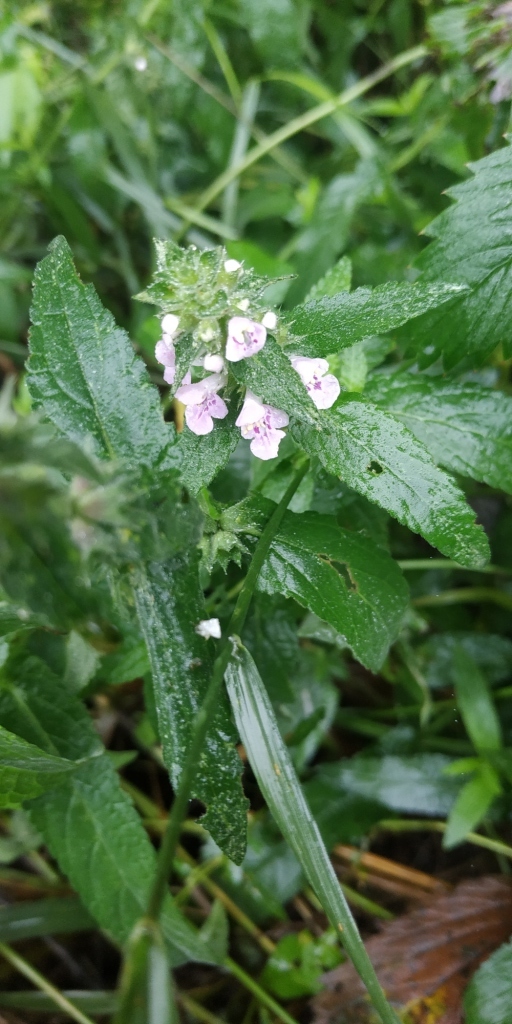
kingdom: Plantae
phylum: Tracheophyta
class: Magnoliopsida
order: Lamiales
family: Lamiaceae
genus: Stachys
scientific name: Stachys palustris
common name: Marsh woundwort
